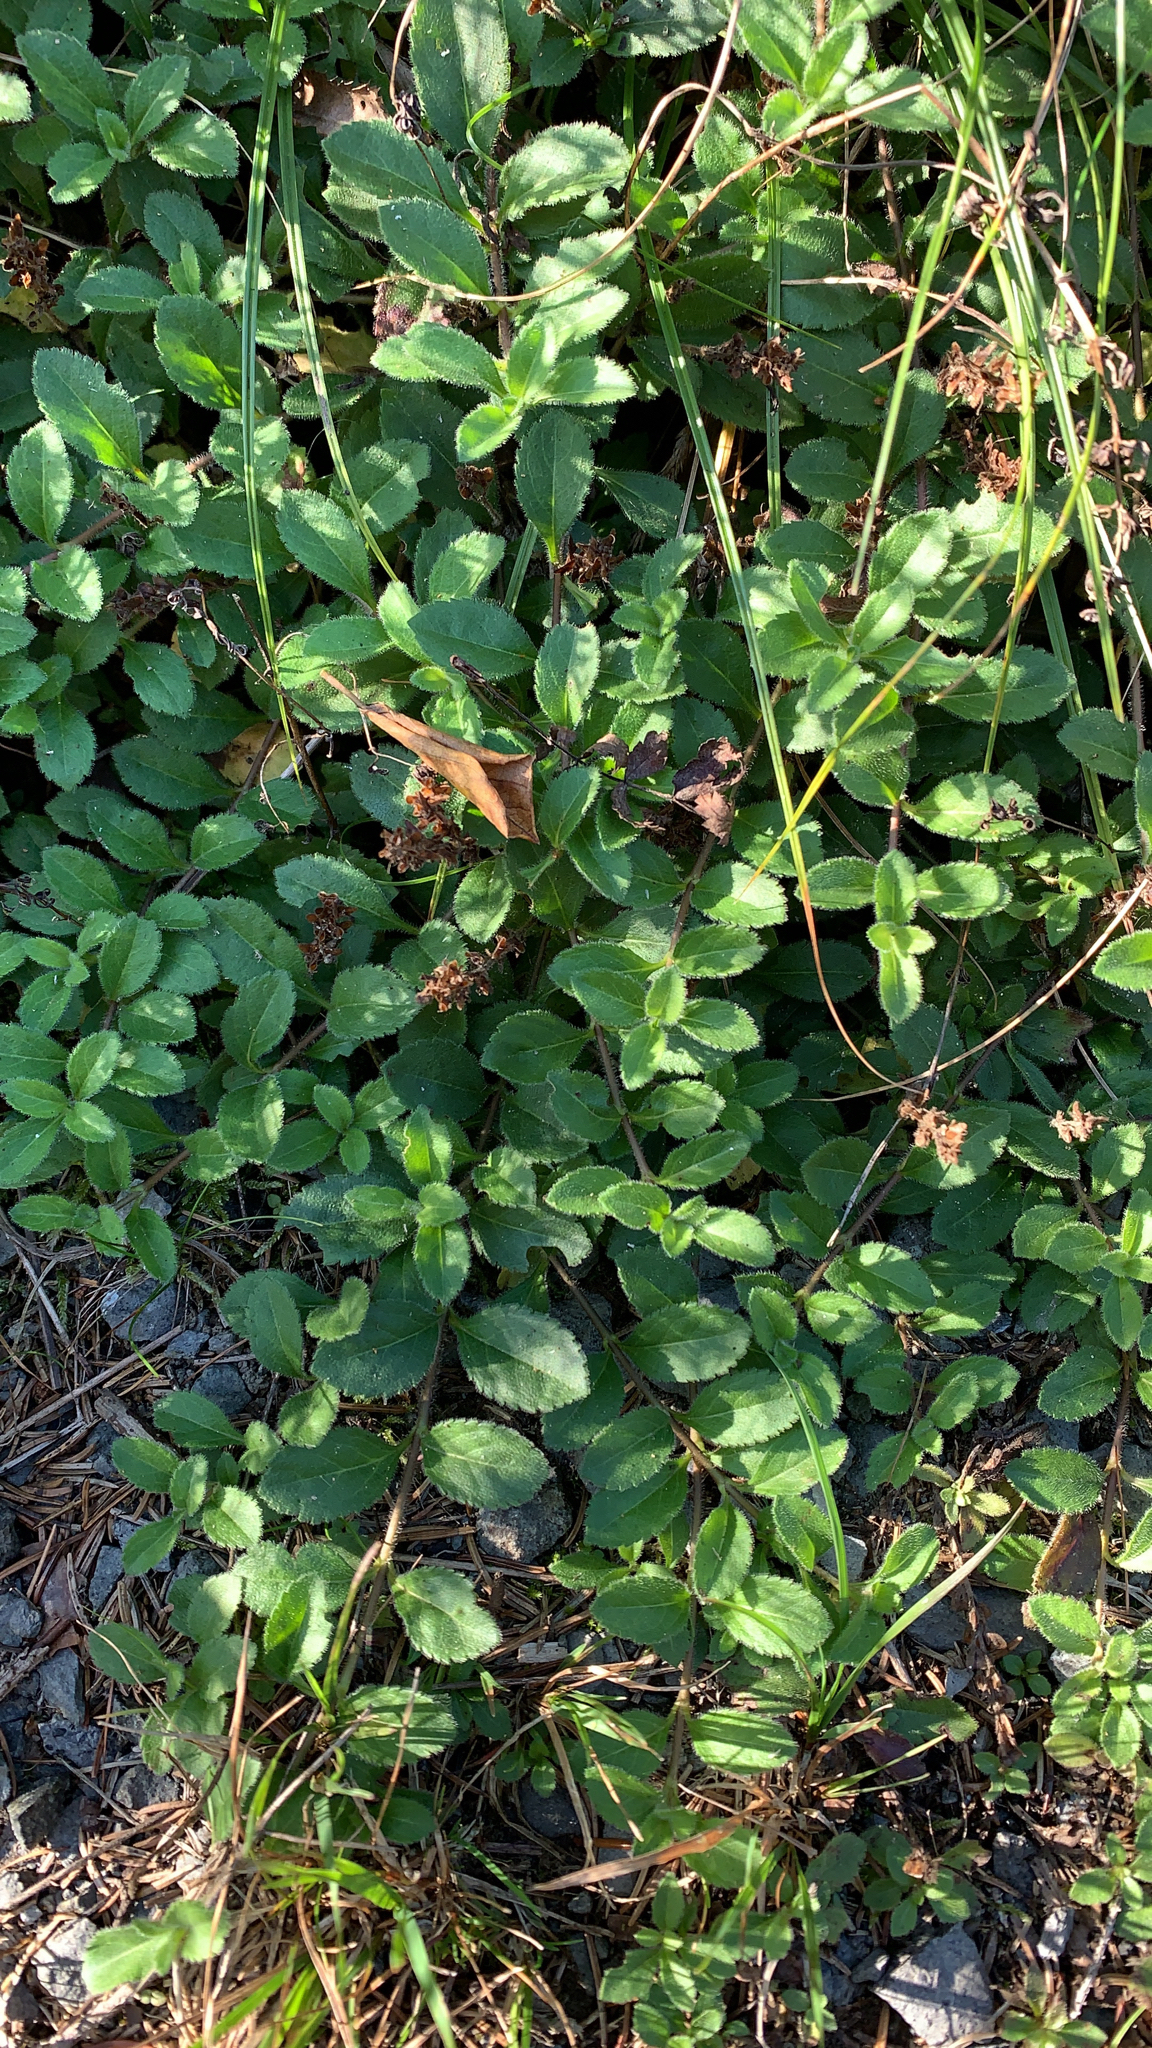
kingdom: Plantae
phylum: Tracheophyta
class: Magnoliopsida
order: Lamiales
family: Plantaginaceae
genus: Veronica
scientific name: Veronica officinalis
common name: Common speedwell
